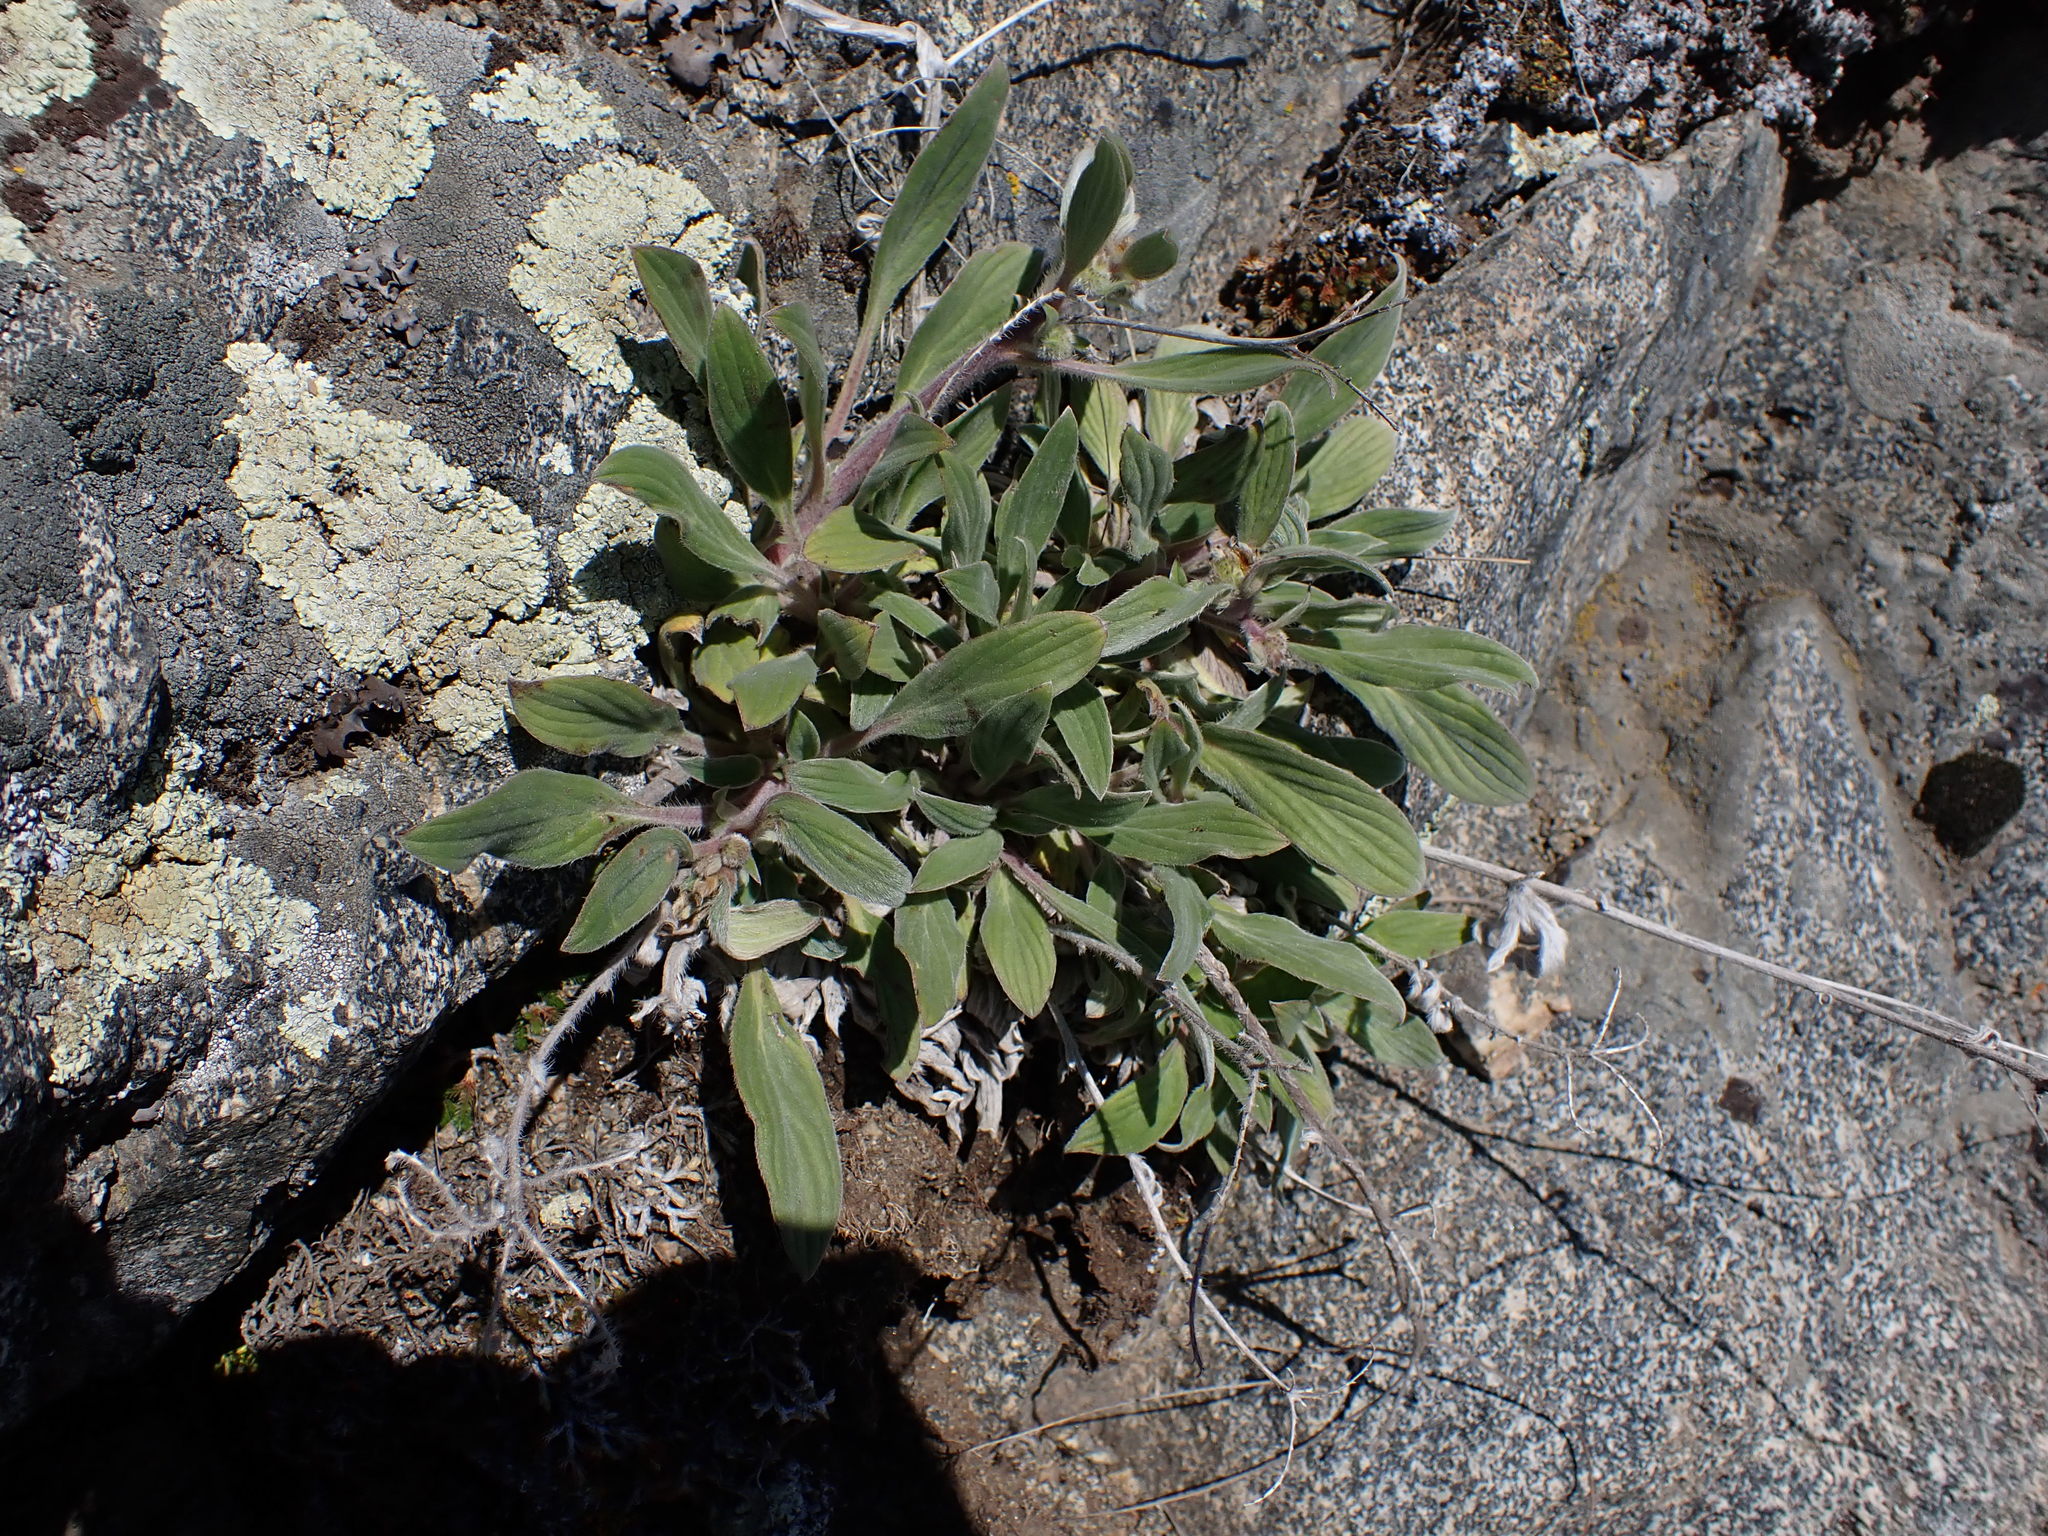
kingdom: Plantae
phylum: Tracheophyta
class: Magnoliopsida
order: Boraginales
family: Hydrophyllaceae
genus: Phacelia
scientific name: Phacelia hastata
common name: Silver-leaved phacelia
